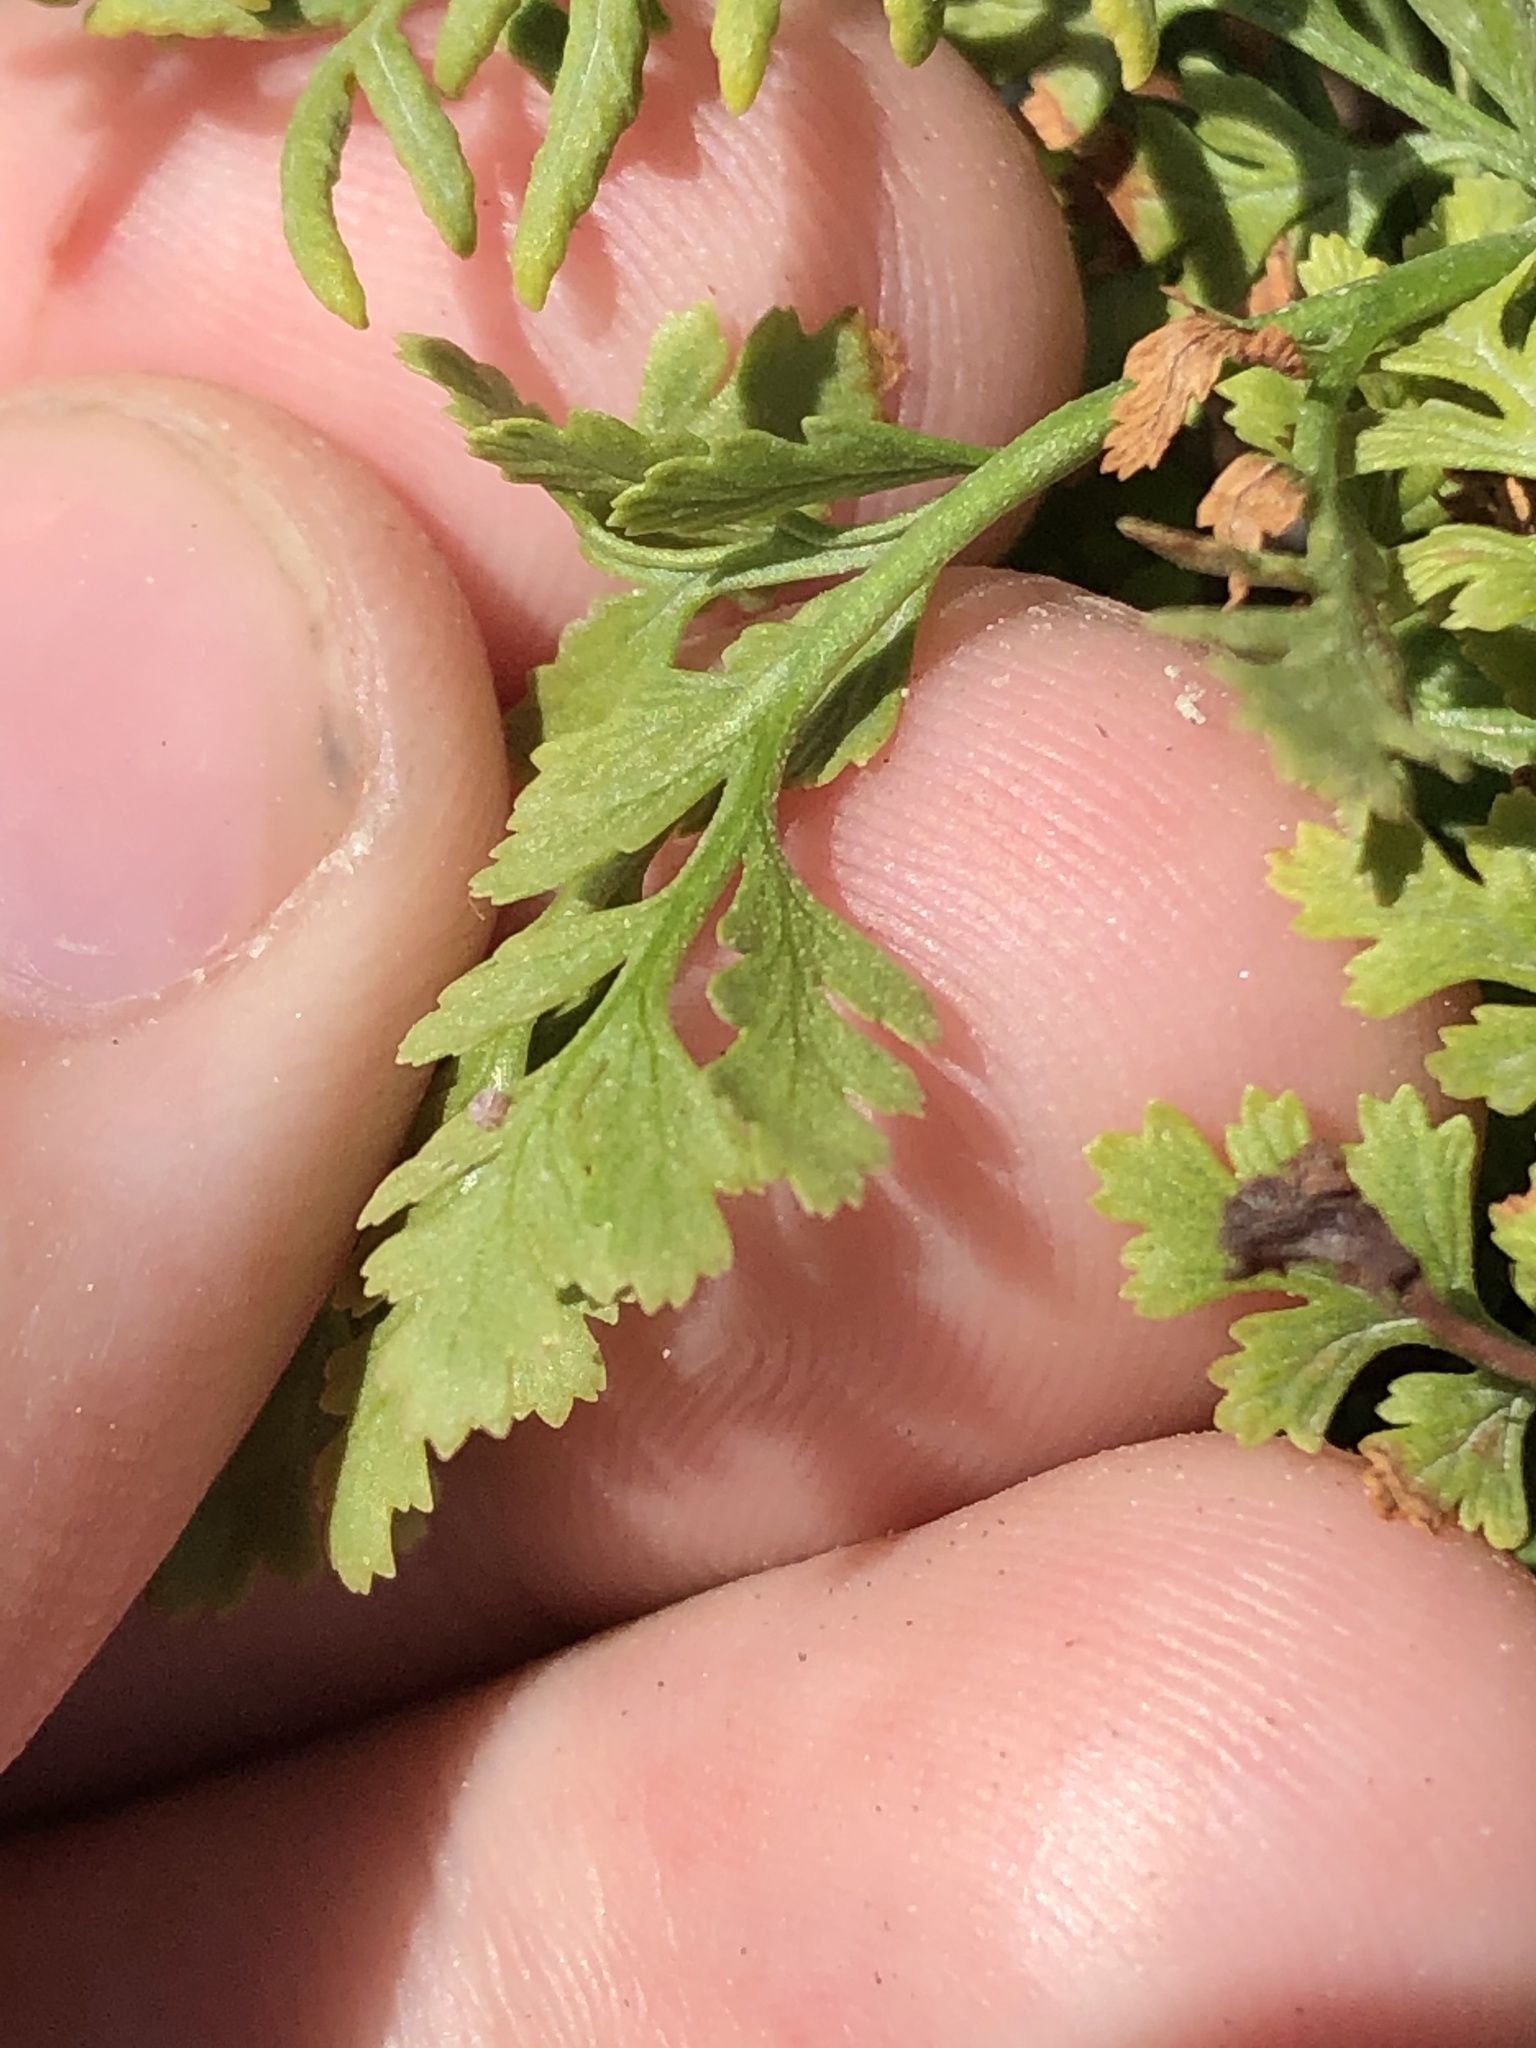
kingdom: Plantae
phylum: Tracheophyta
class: Polypodiopsida
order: Polypodiales
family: Pteridaceae
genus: Cryptogramma
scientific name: Cryptogramma acrostichoides
